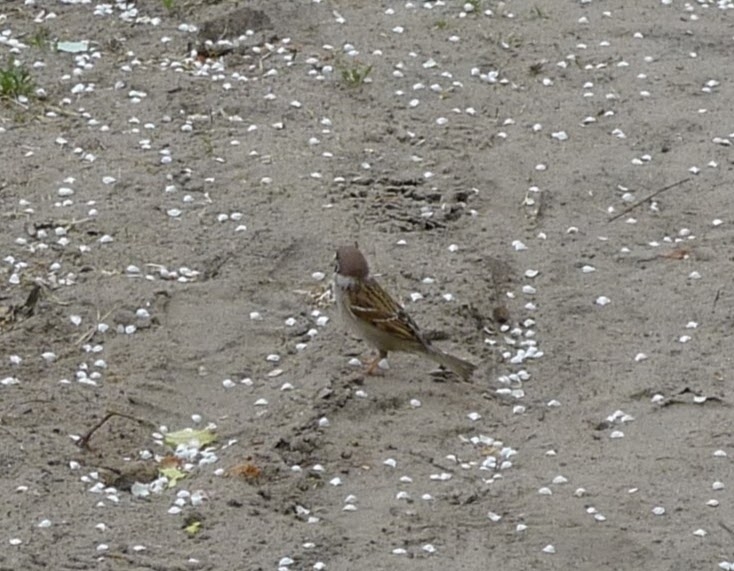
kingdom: Animalia
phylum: Chordata
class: Aves
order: Passeriformes
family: Passeridae
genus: Passer
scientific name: Passer montanus
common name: Eurasian tree sparrow
